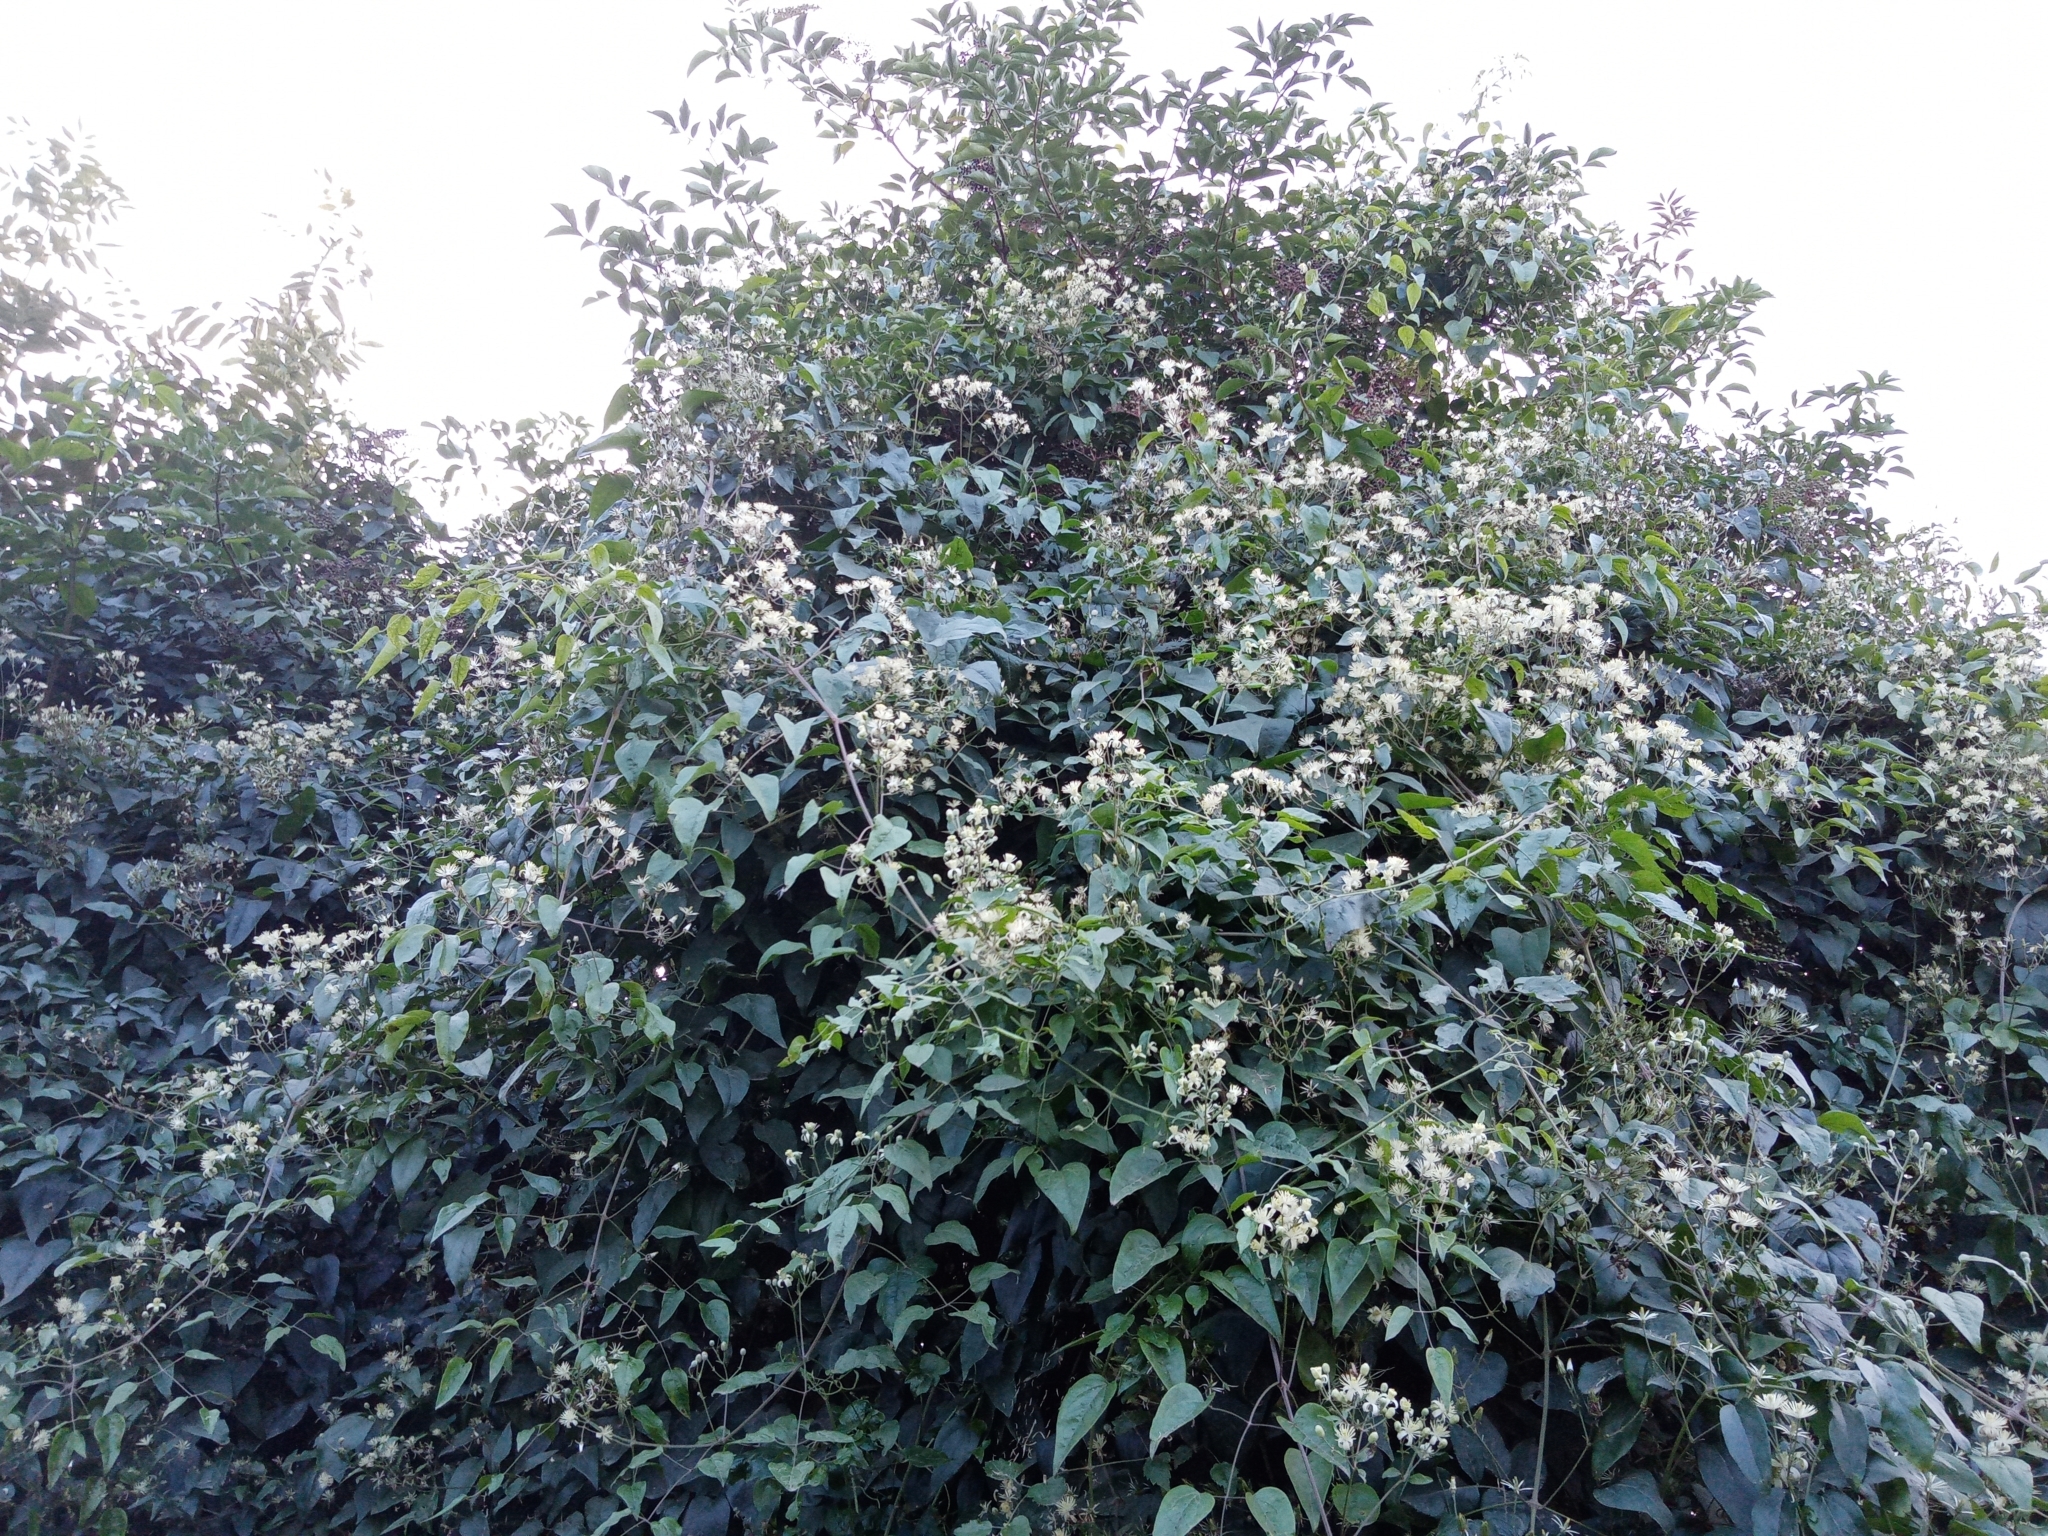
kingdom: Plantae
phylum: Tracheophyta
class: Magnoliopsida
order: Ranunculales
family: Ranunculaceae
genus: Clematis
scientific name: Clematis vitalba
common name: Evergreen clematis
